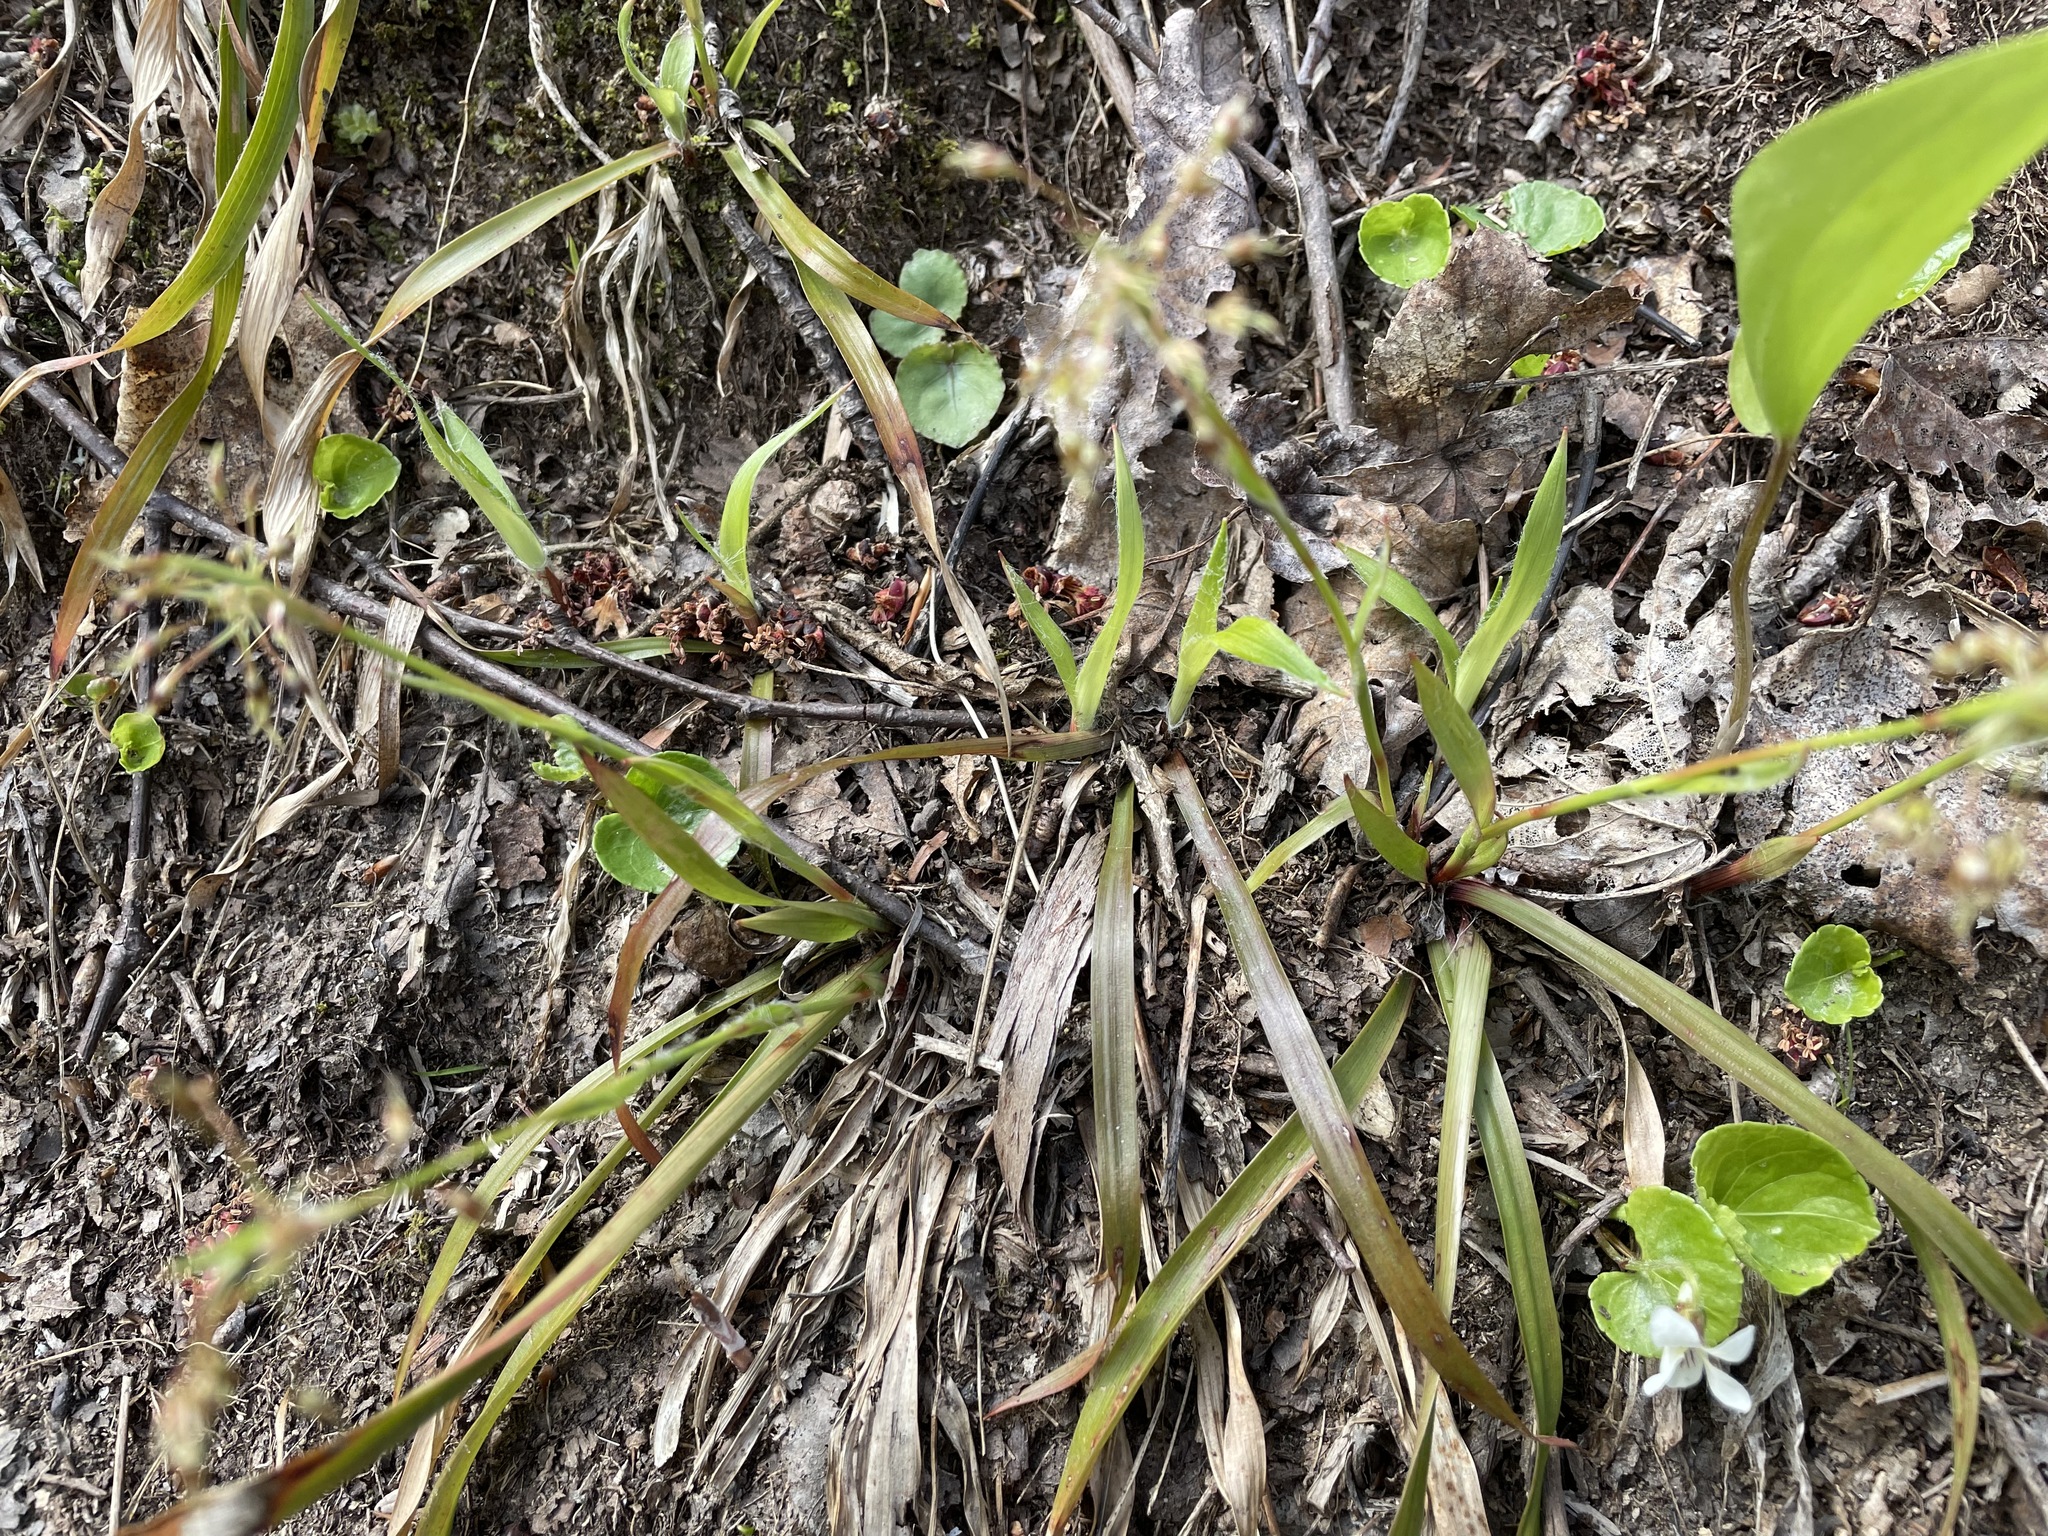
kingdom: Plantae
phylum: Tracheophyta
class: Liliopsida
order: Poales
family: Juncaceae
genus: Luzula
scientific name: Luzula acuminata
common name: Hairy woodrush
